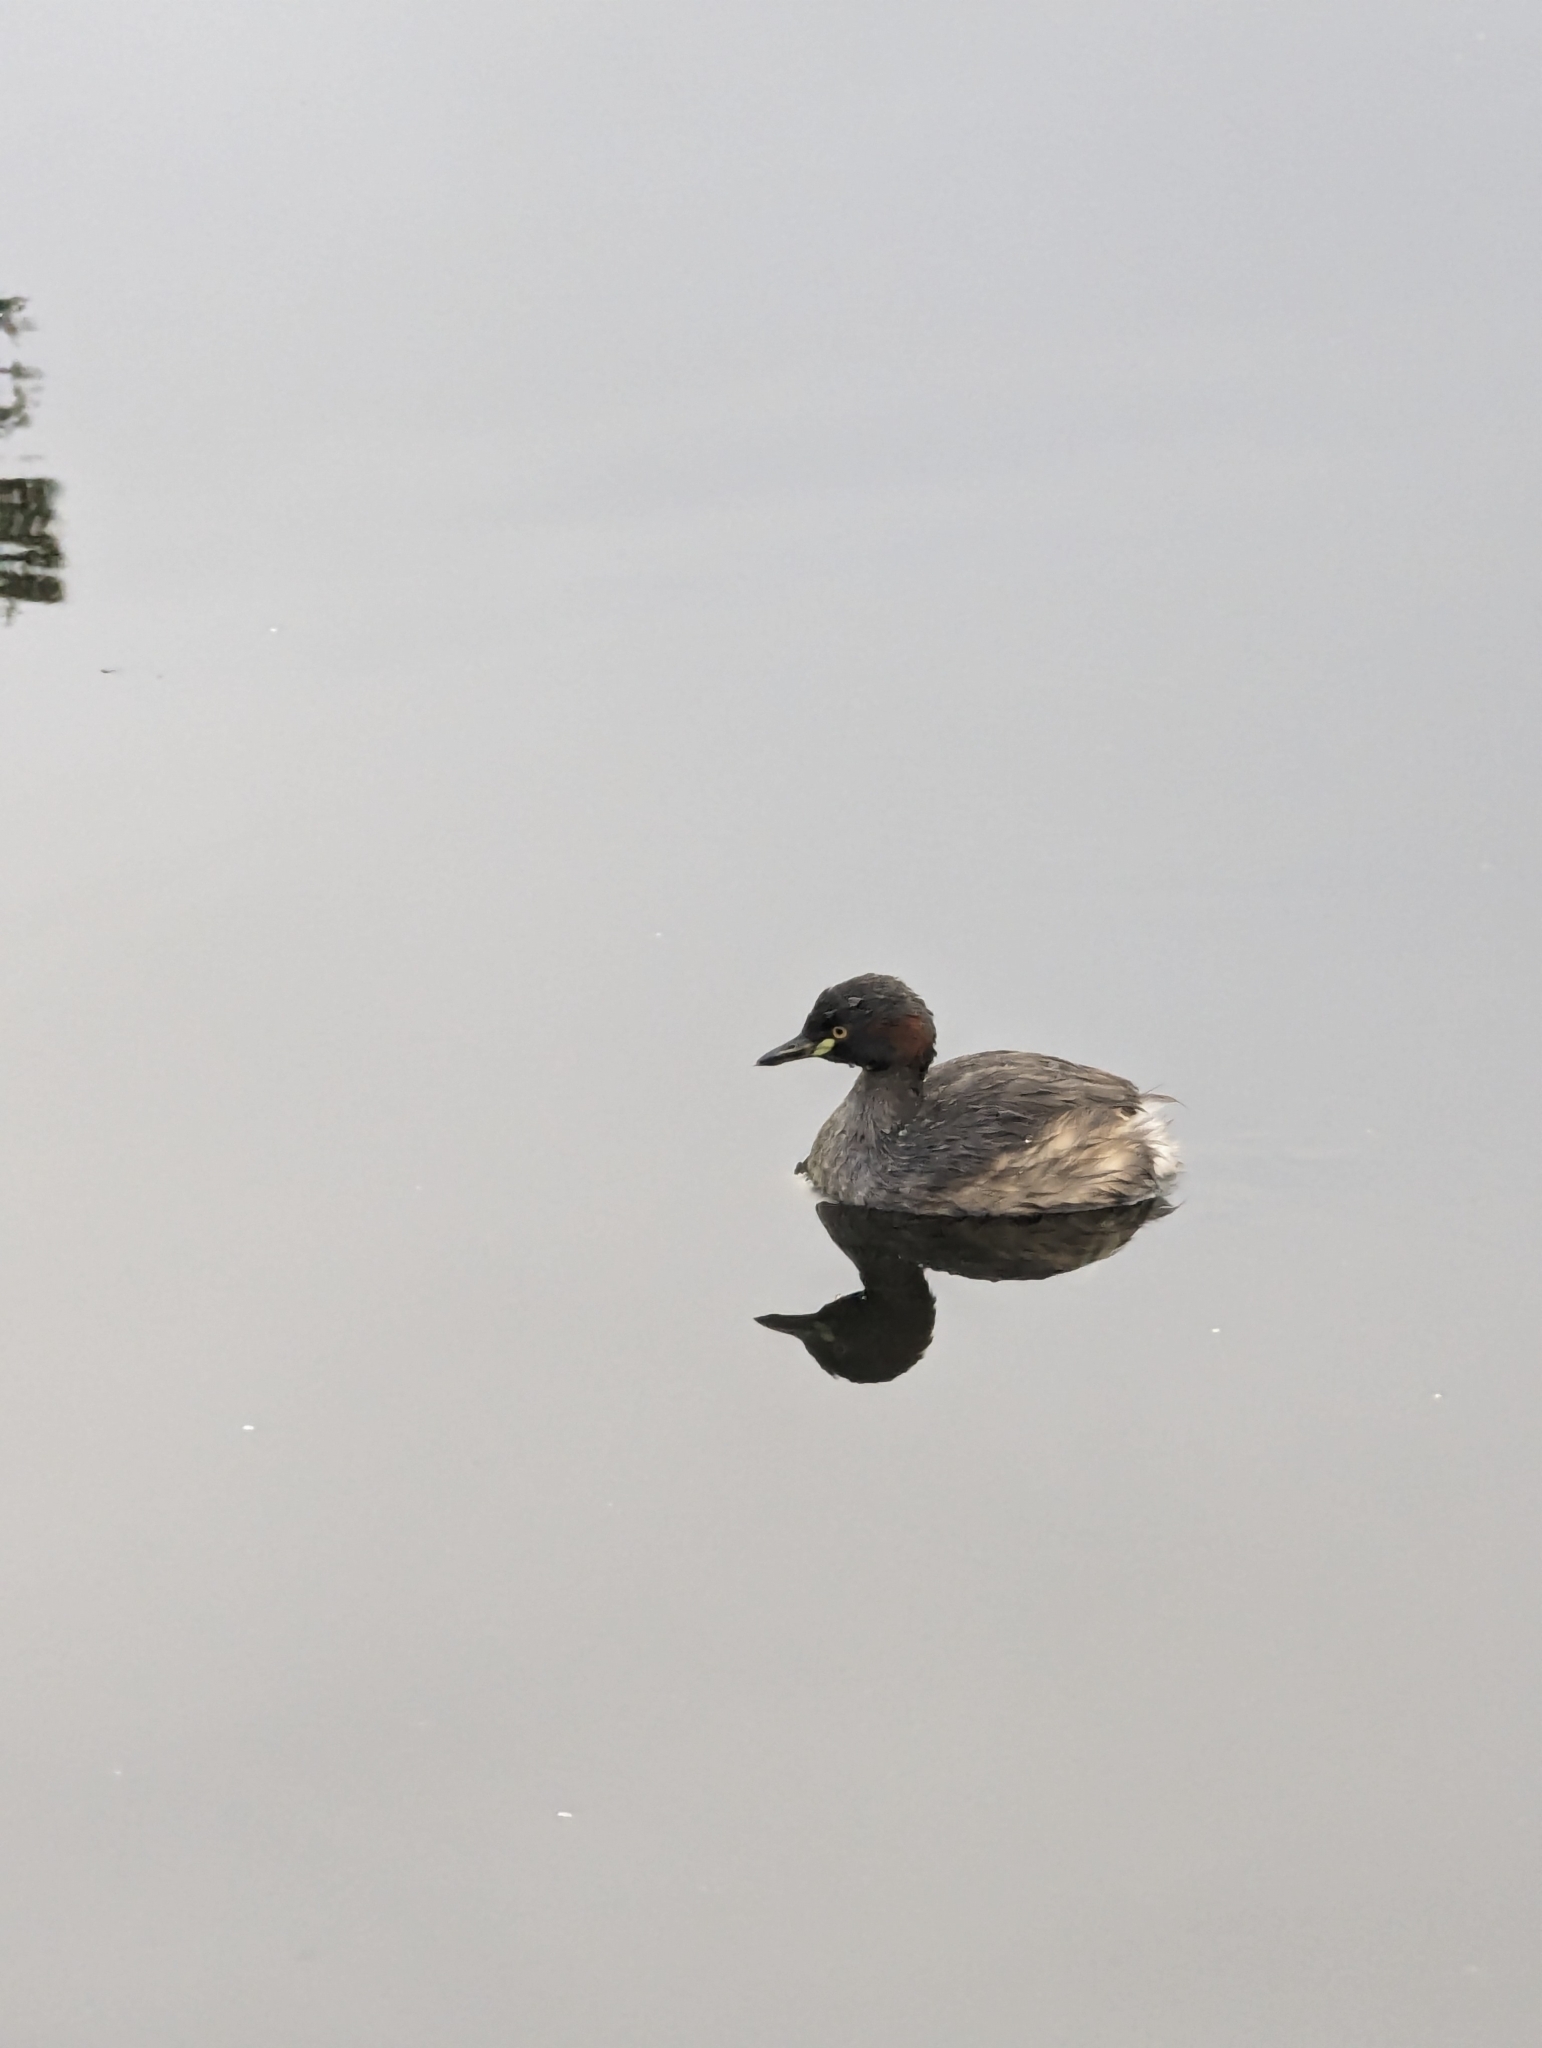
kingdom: Animalia
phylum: Chordata
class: Aves
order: Podicipediformes
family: Podicipedidae
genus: Tachybaptus
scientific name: Tachybaptus novaehollandiae
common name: Australasian grebe
